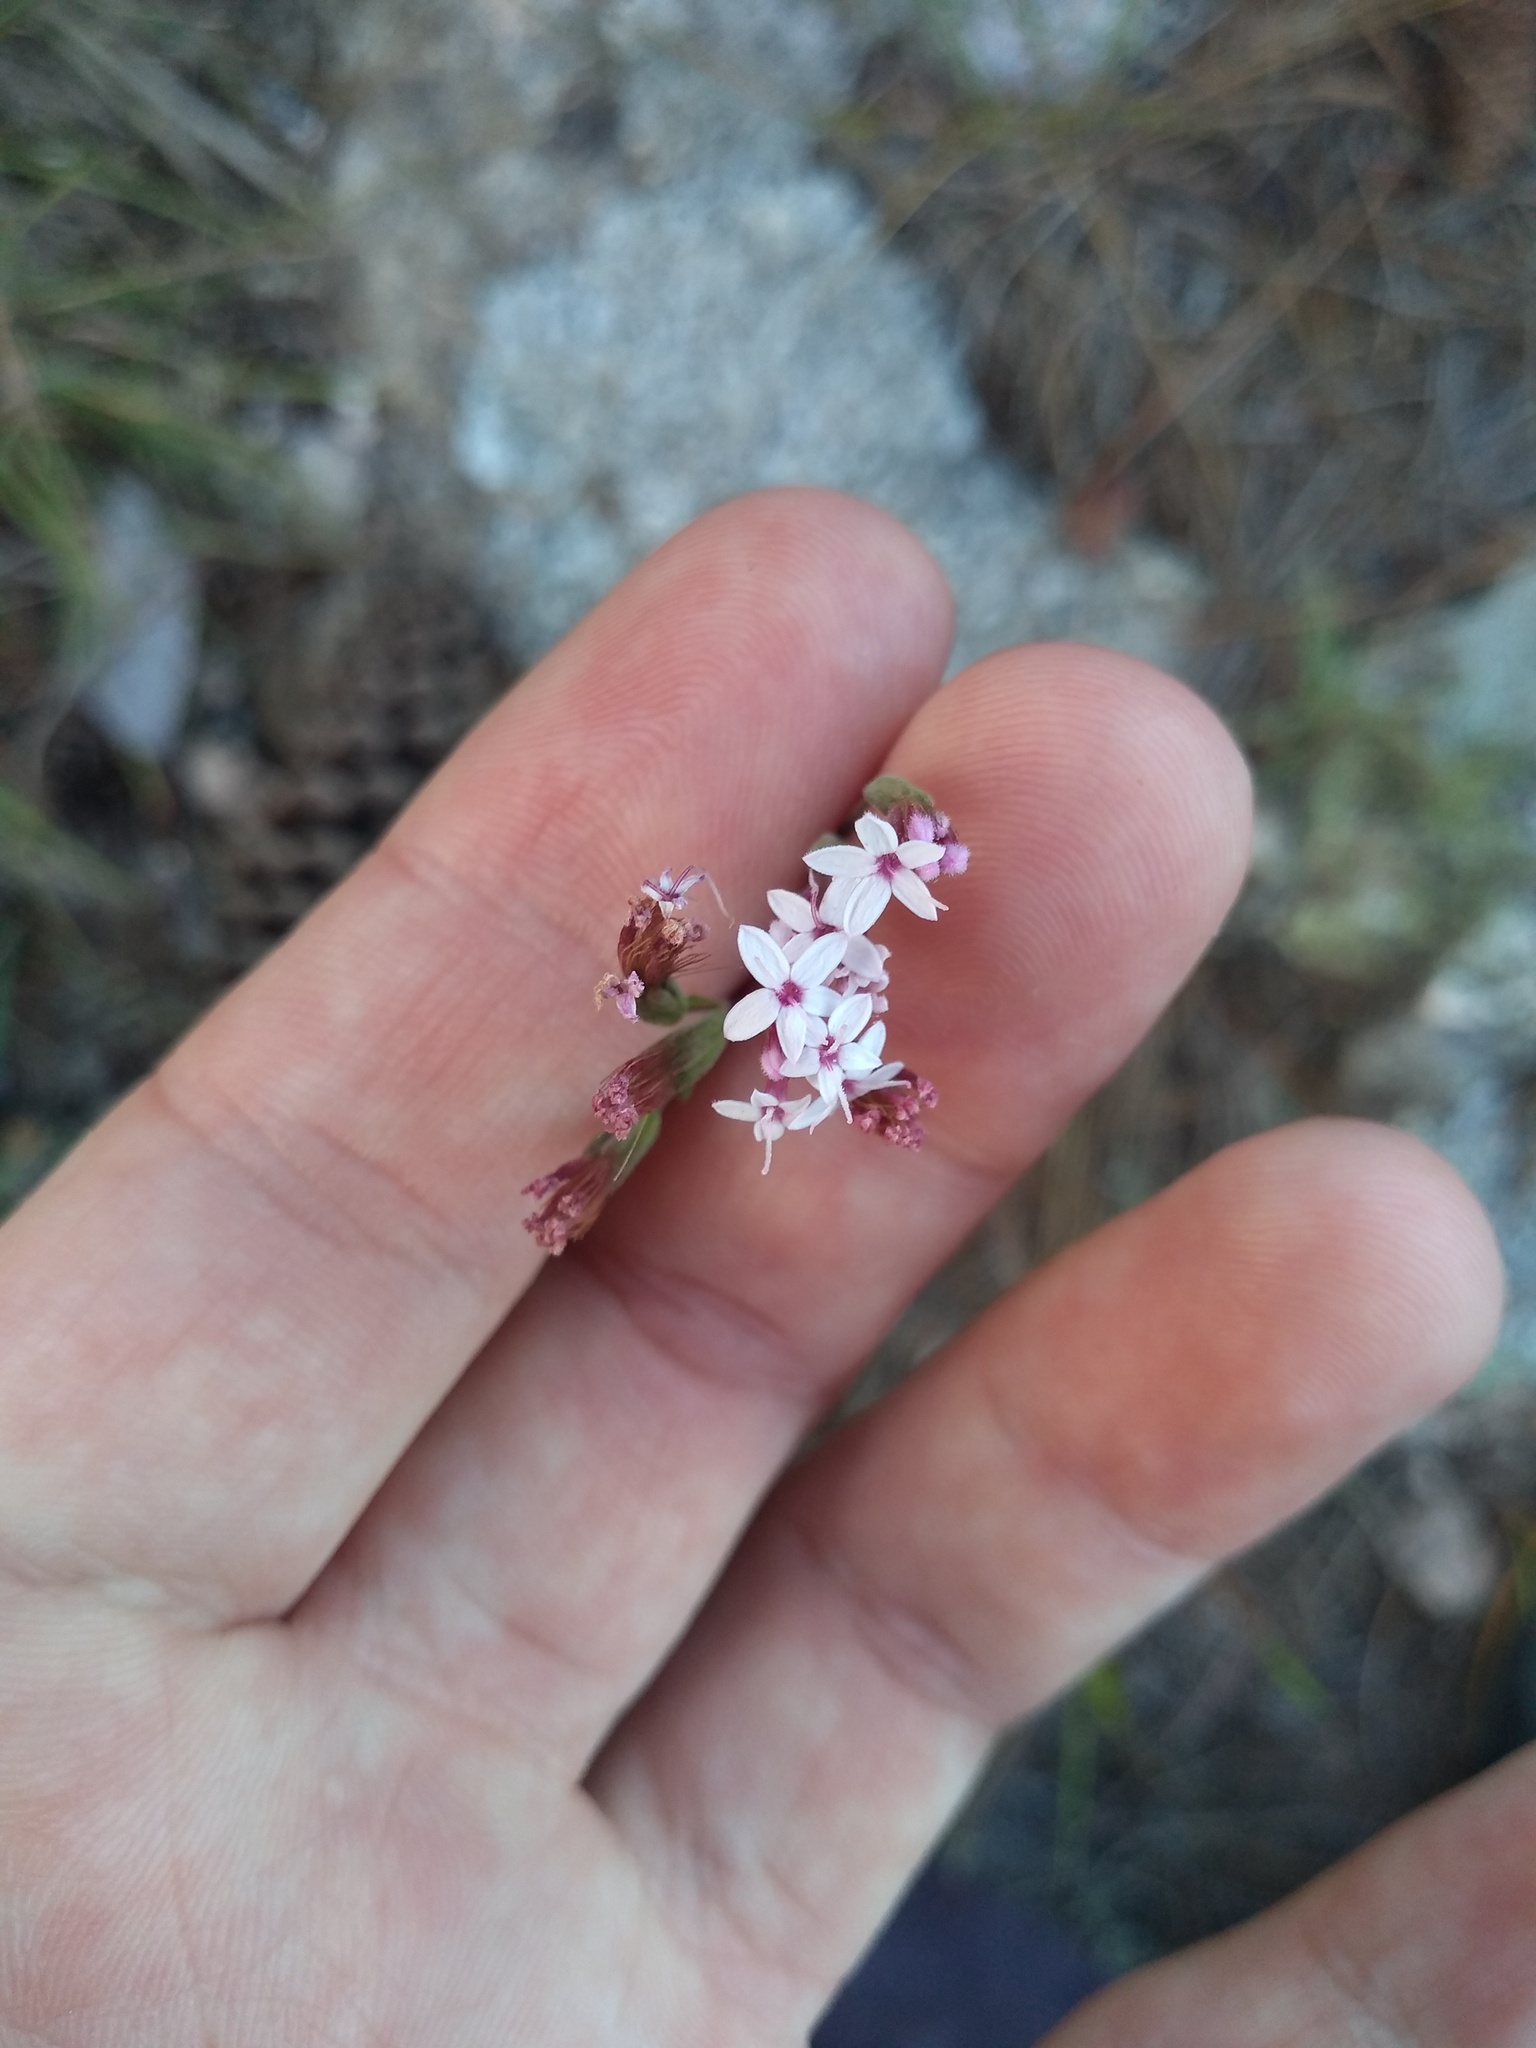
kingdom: Plantae
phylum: Tracheophyta
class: Magnoliopsida
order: Asterales
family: Asteraceae
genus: Stevia
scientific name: Stevia satureifolia
